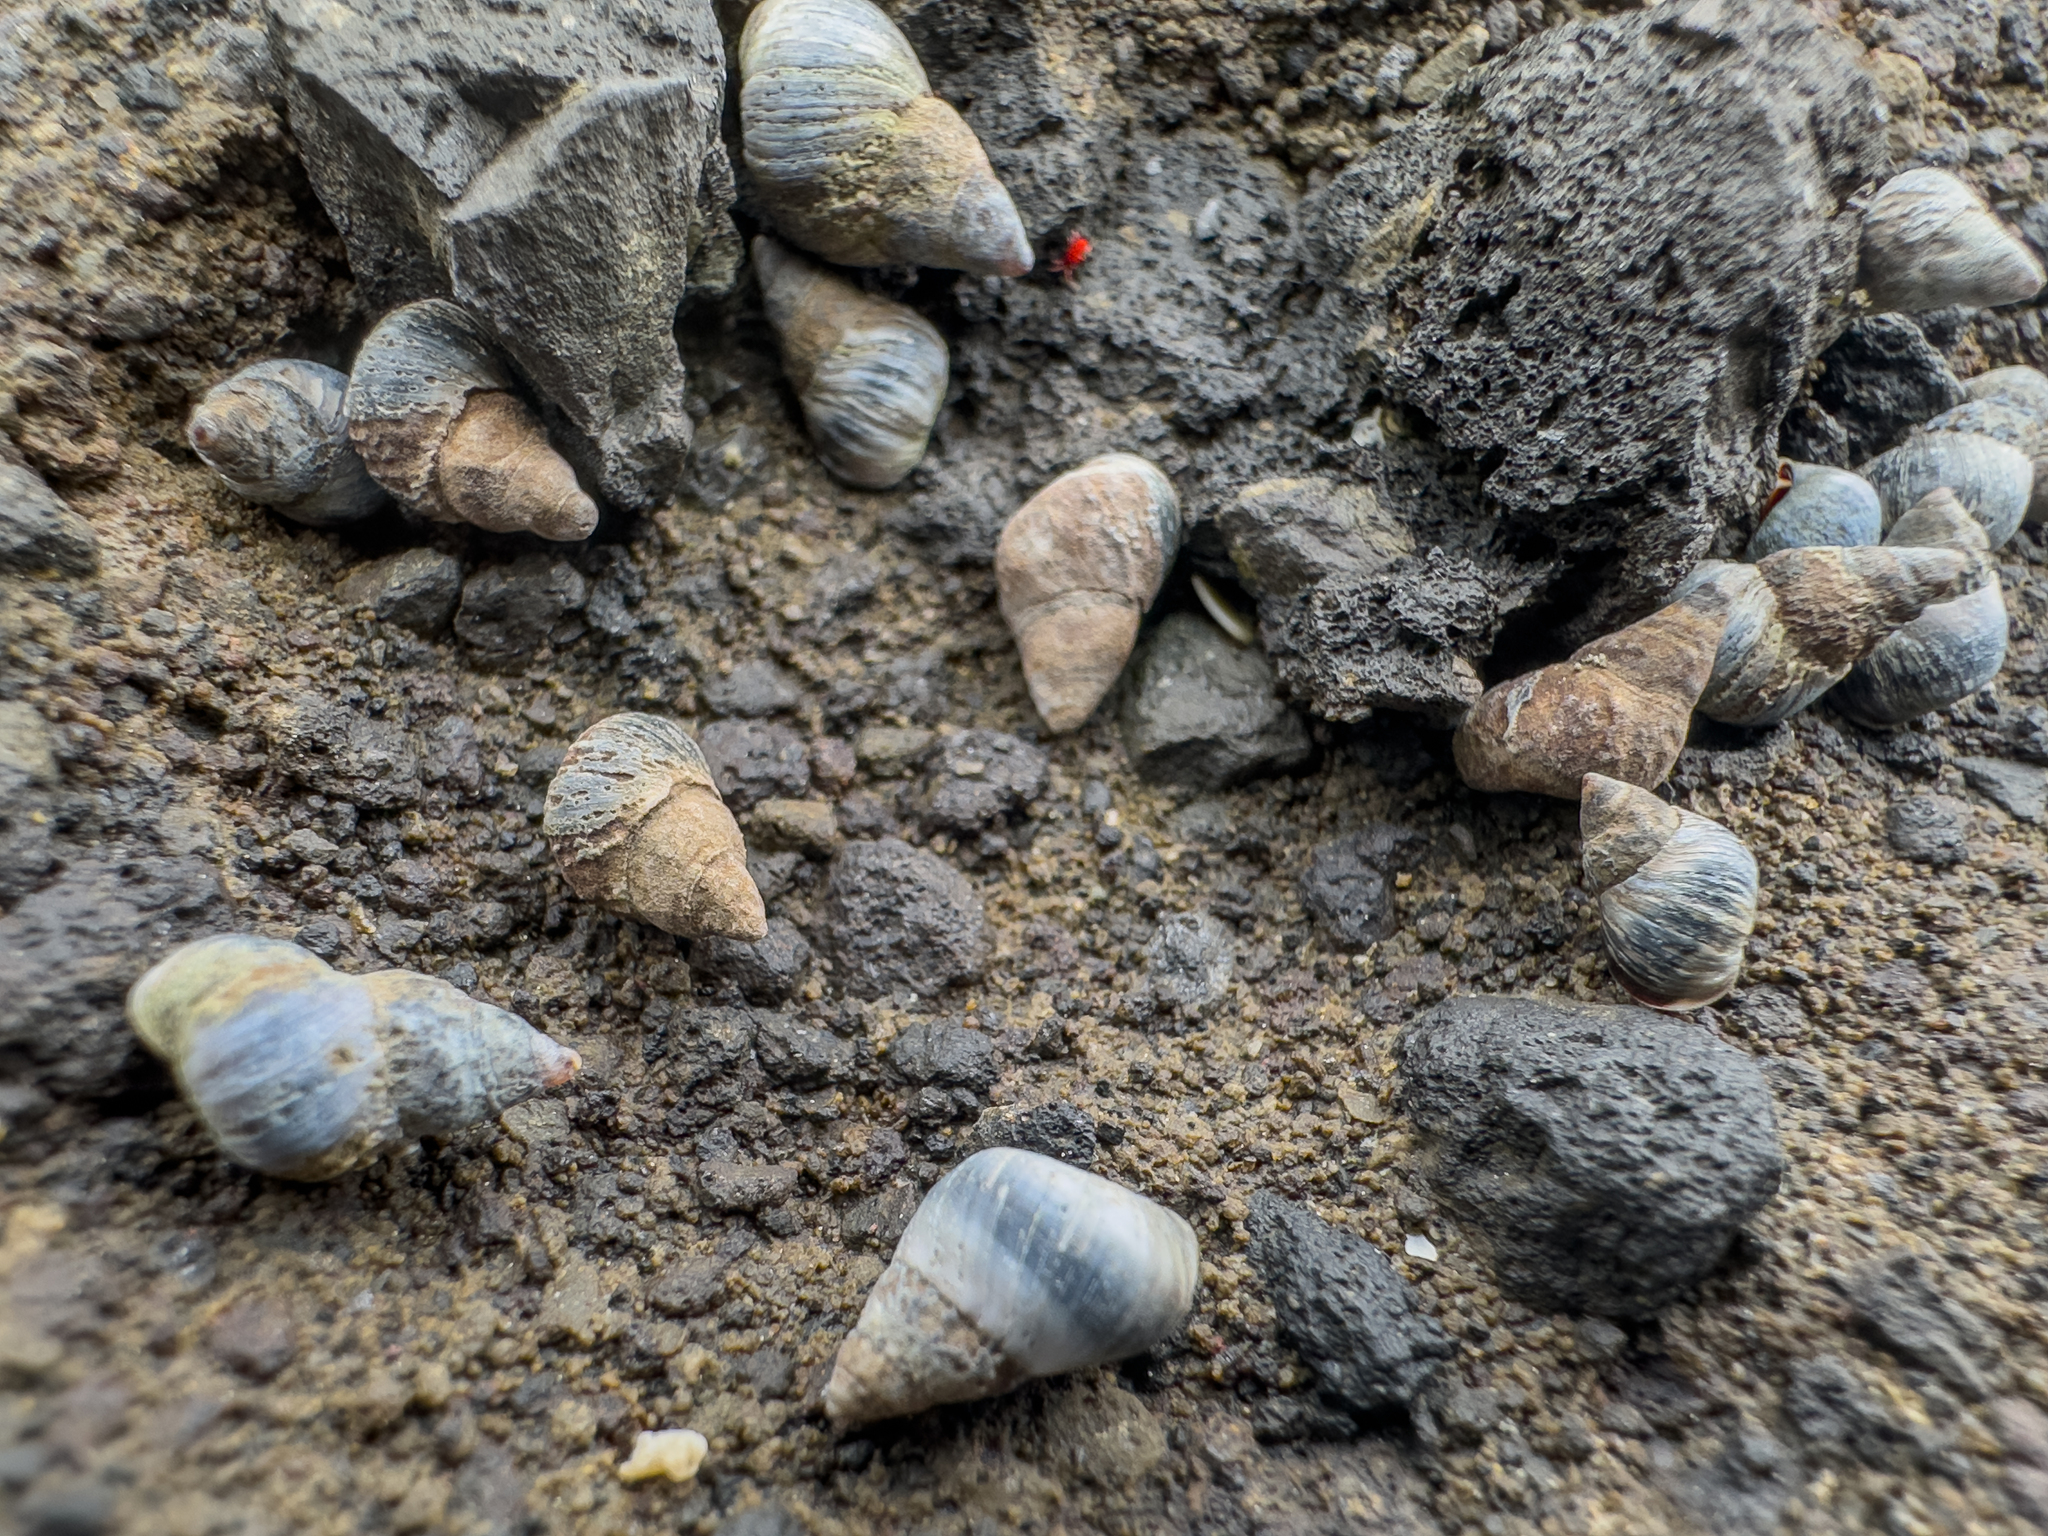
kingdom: Animalia
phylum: Mollusca
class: Gastropoda
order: Littorinimorpha
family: Littorinidae
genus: Austrolittorina
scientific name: Austrolittorina antipodum
